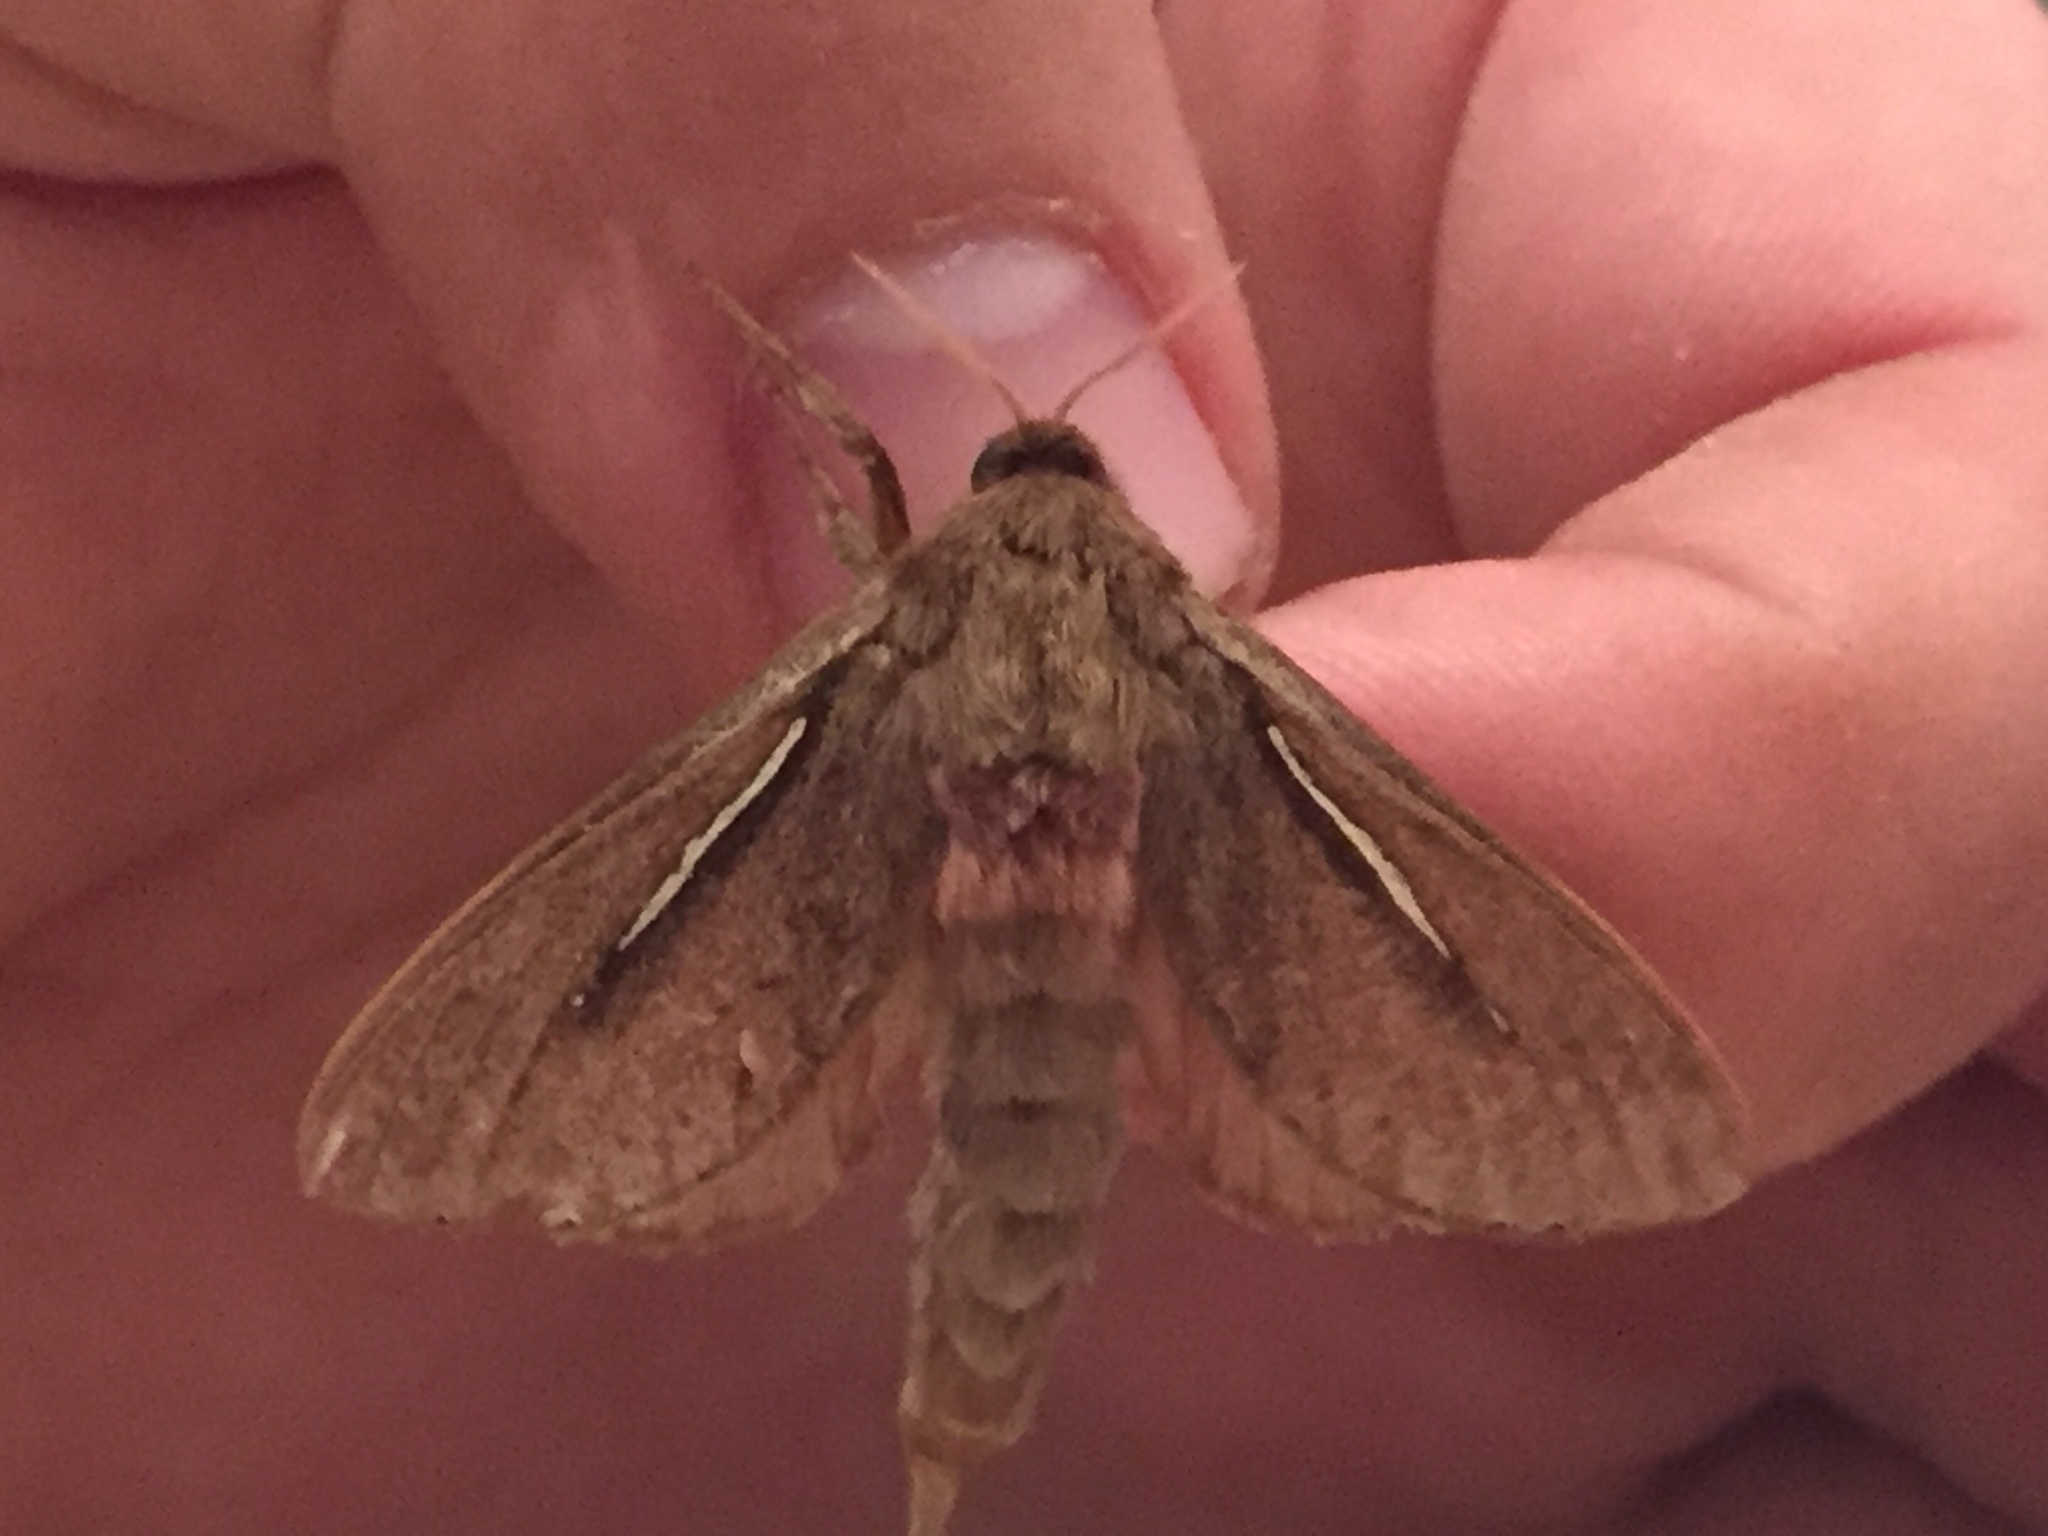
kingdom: Animalia
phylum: Arthropoda
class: Insecta
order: Lepidoptera
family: Hepialidae
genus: Wiseana
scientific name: Wiseana umbraculatus
